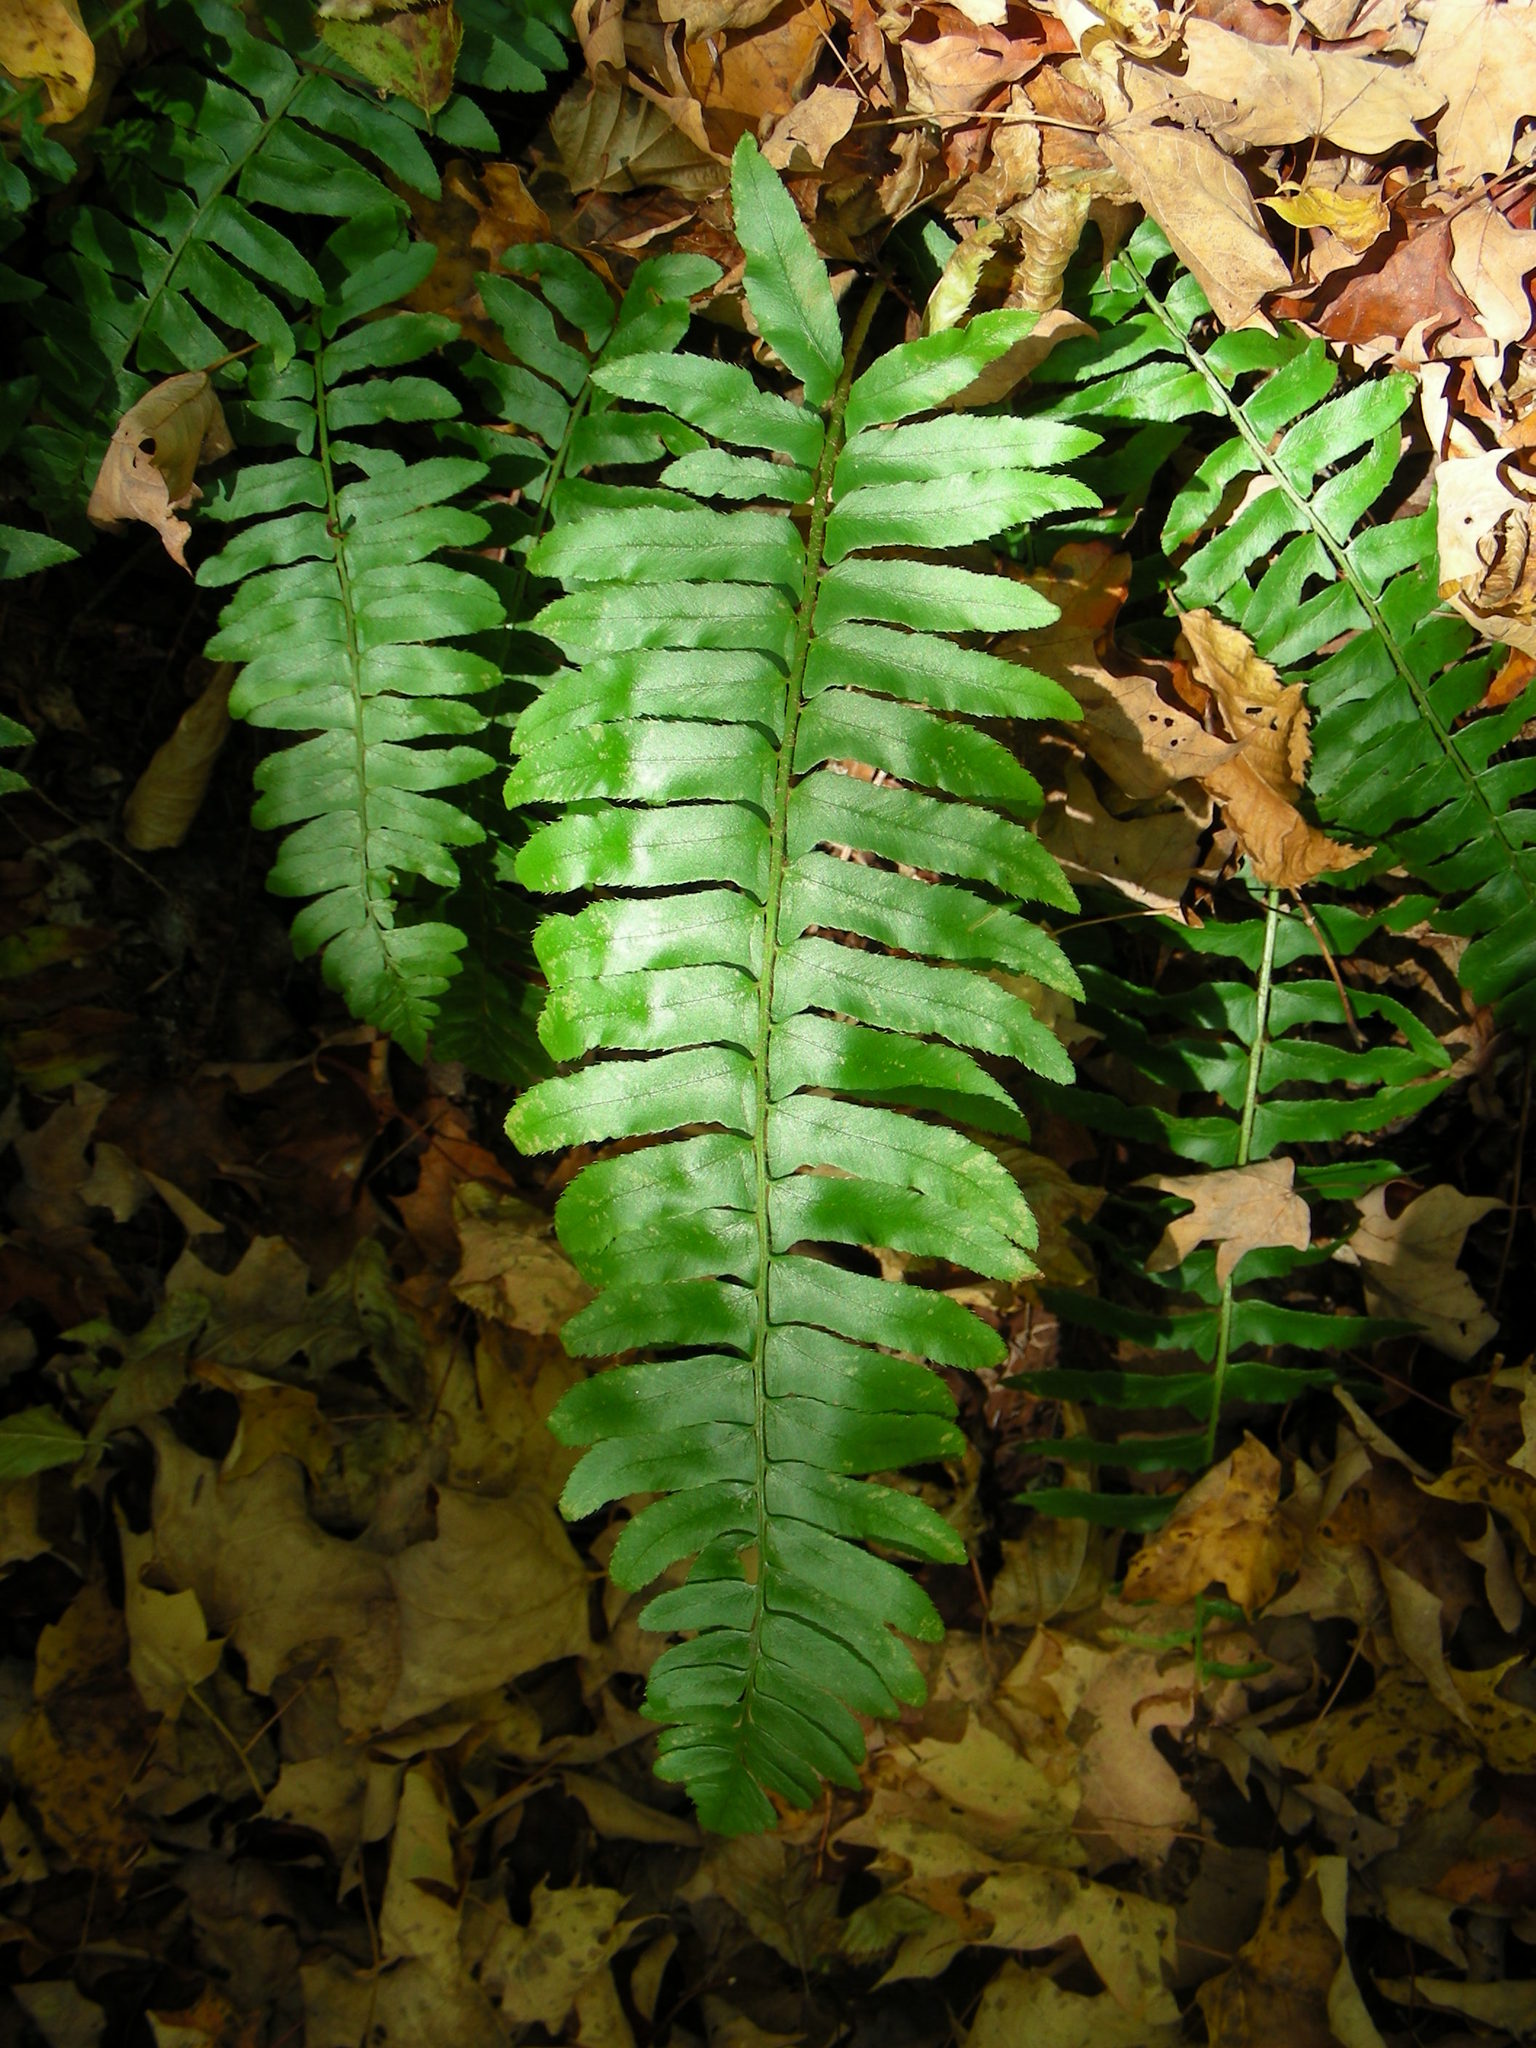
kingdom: Plantae
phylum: Tracheophyta
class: Polypodiopsida
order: Polypodiales
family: Dryopteridaceae
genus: Polystichum
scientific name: Polystichum acrostichoides
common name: Christmas fern
